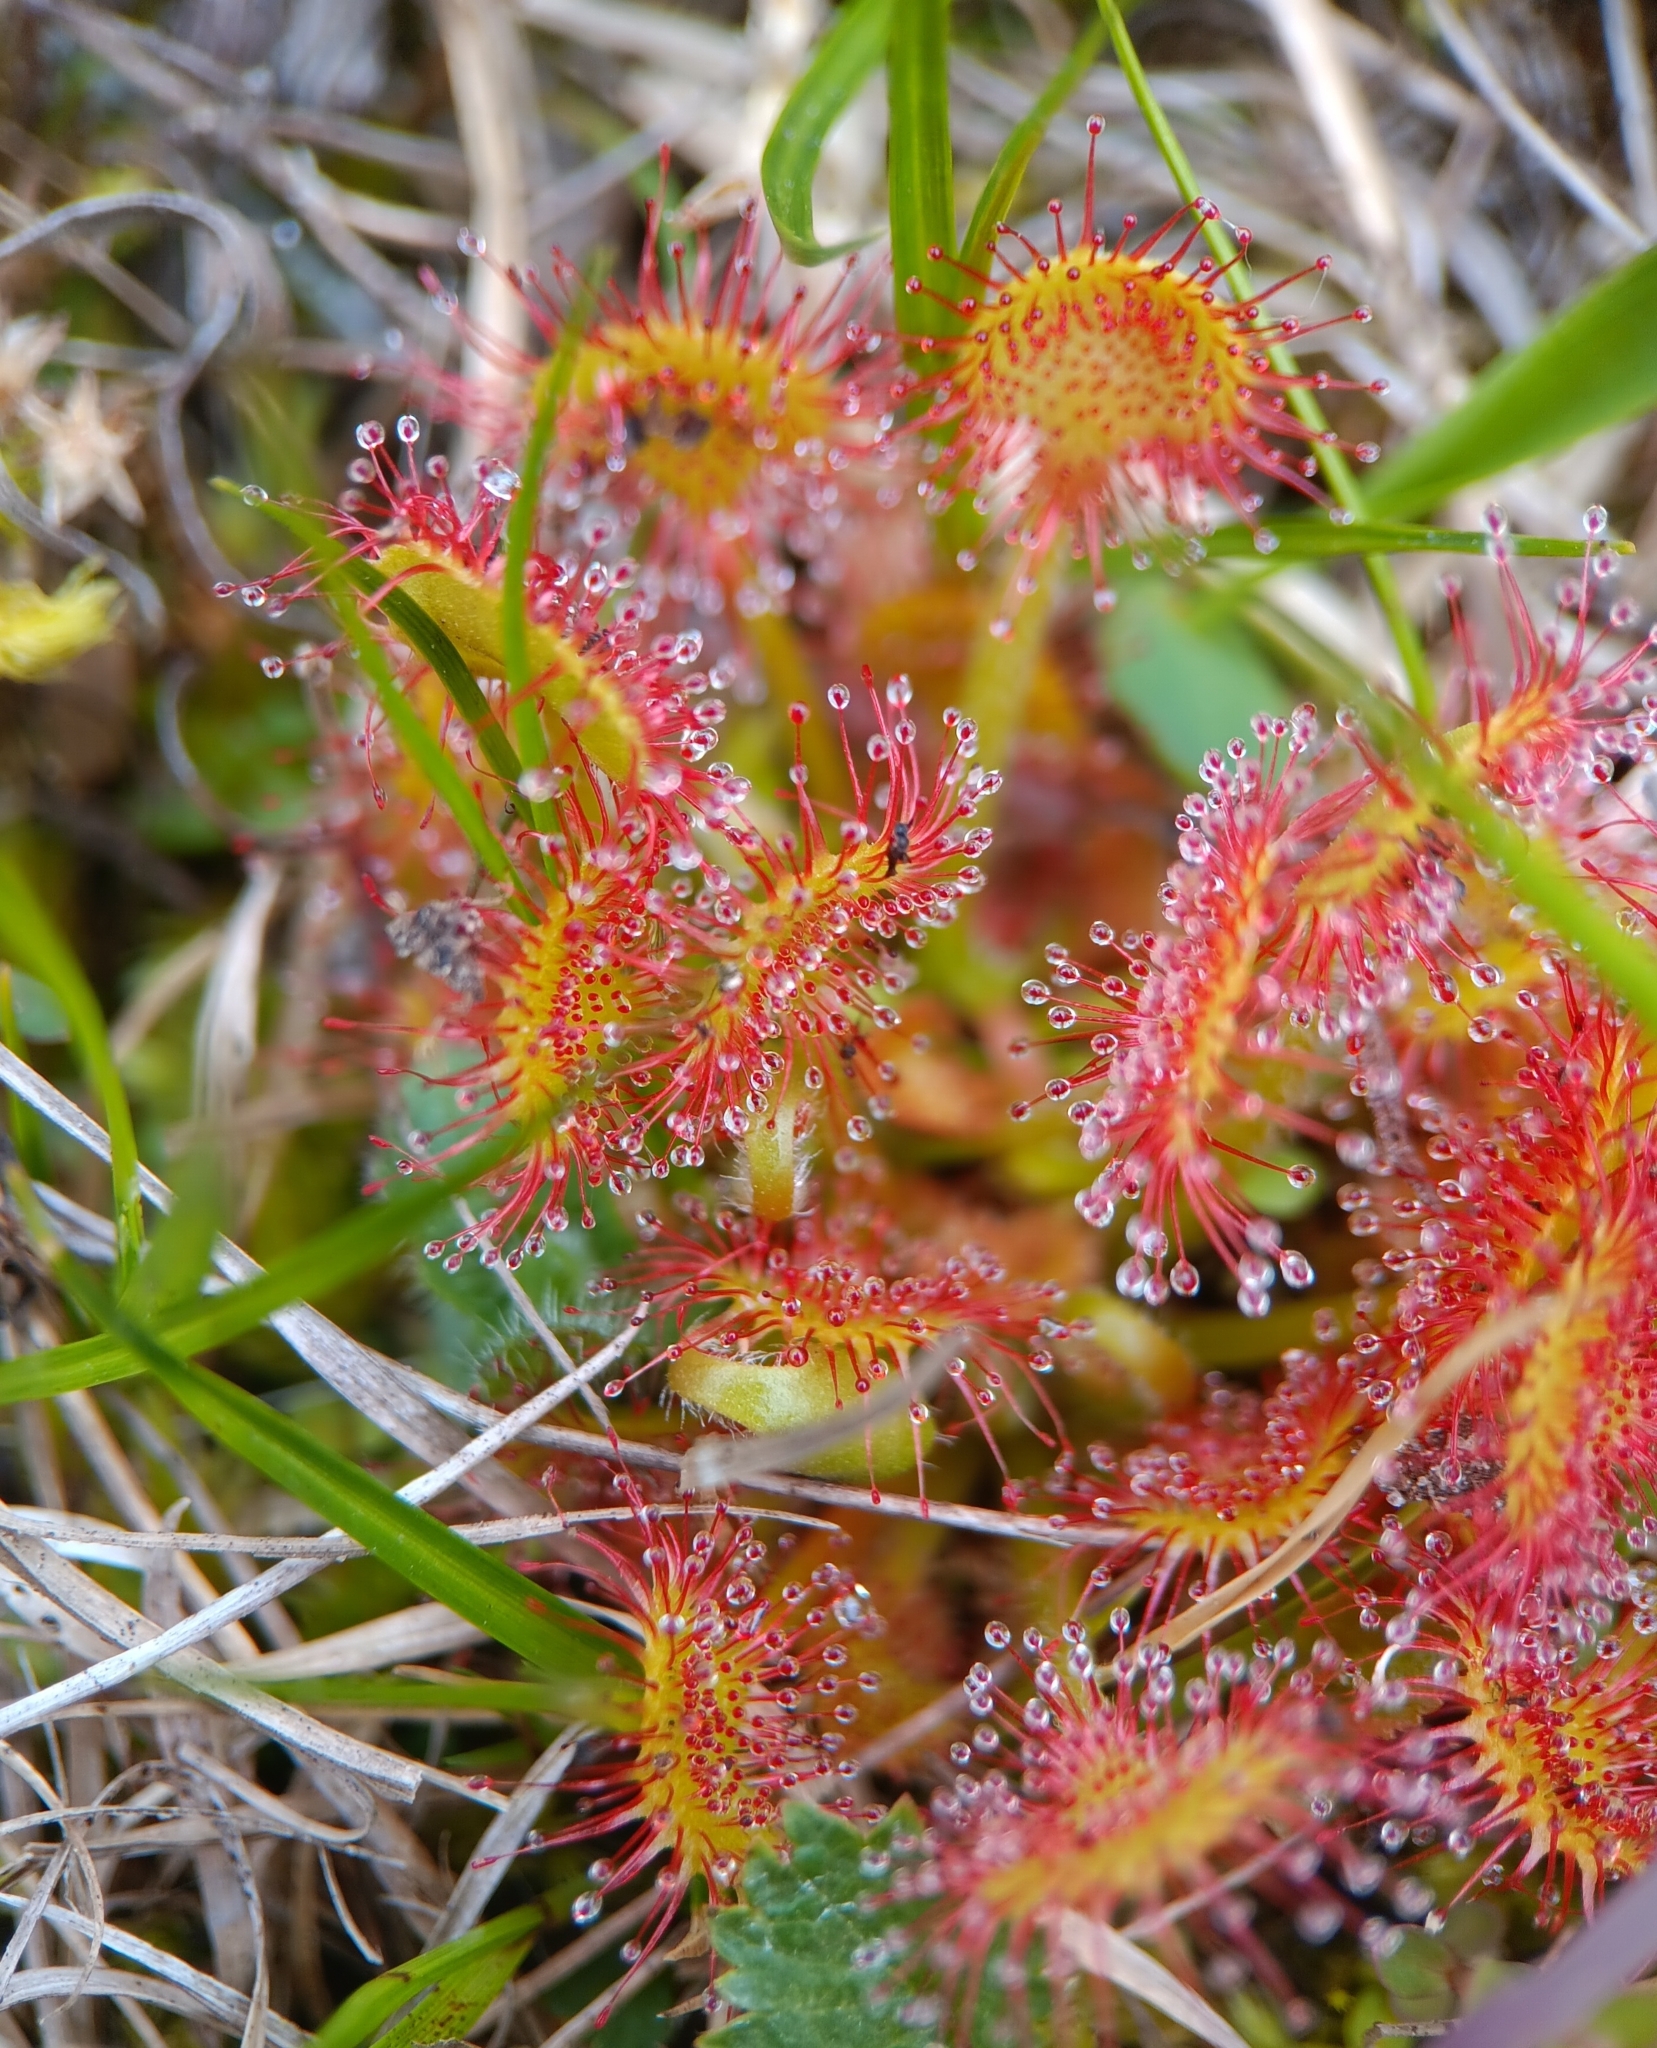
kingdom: Plantae
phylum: Tracheophyta
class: Magnoliopsida
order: Caryophyllales
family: Droseraceae
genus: Drosera
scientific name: Drosera rotundifolia
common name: Round-leaved sundew
